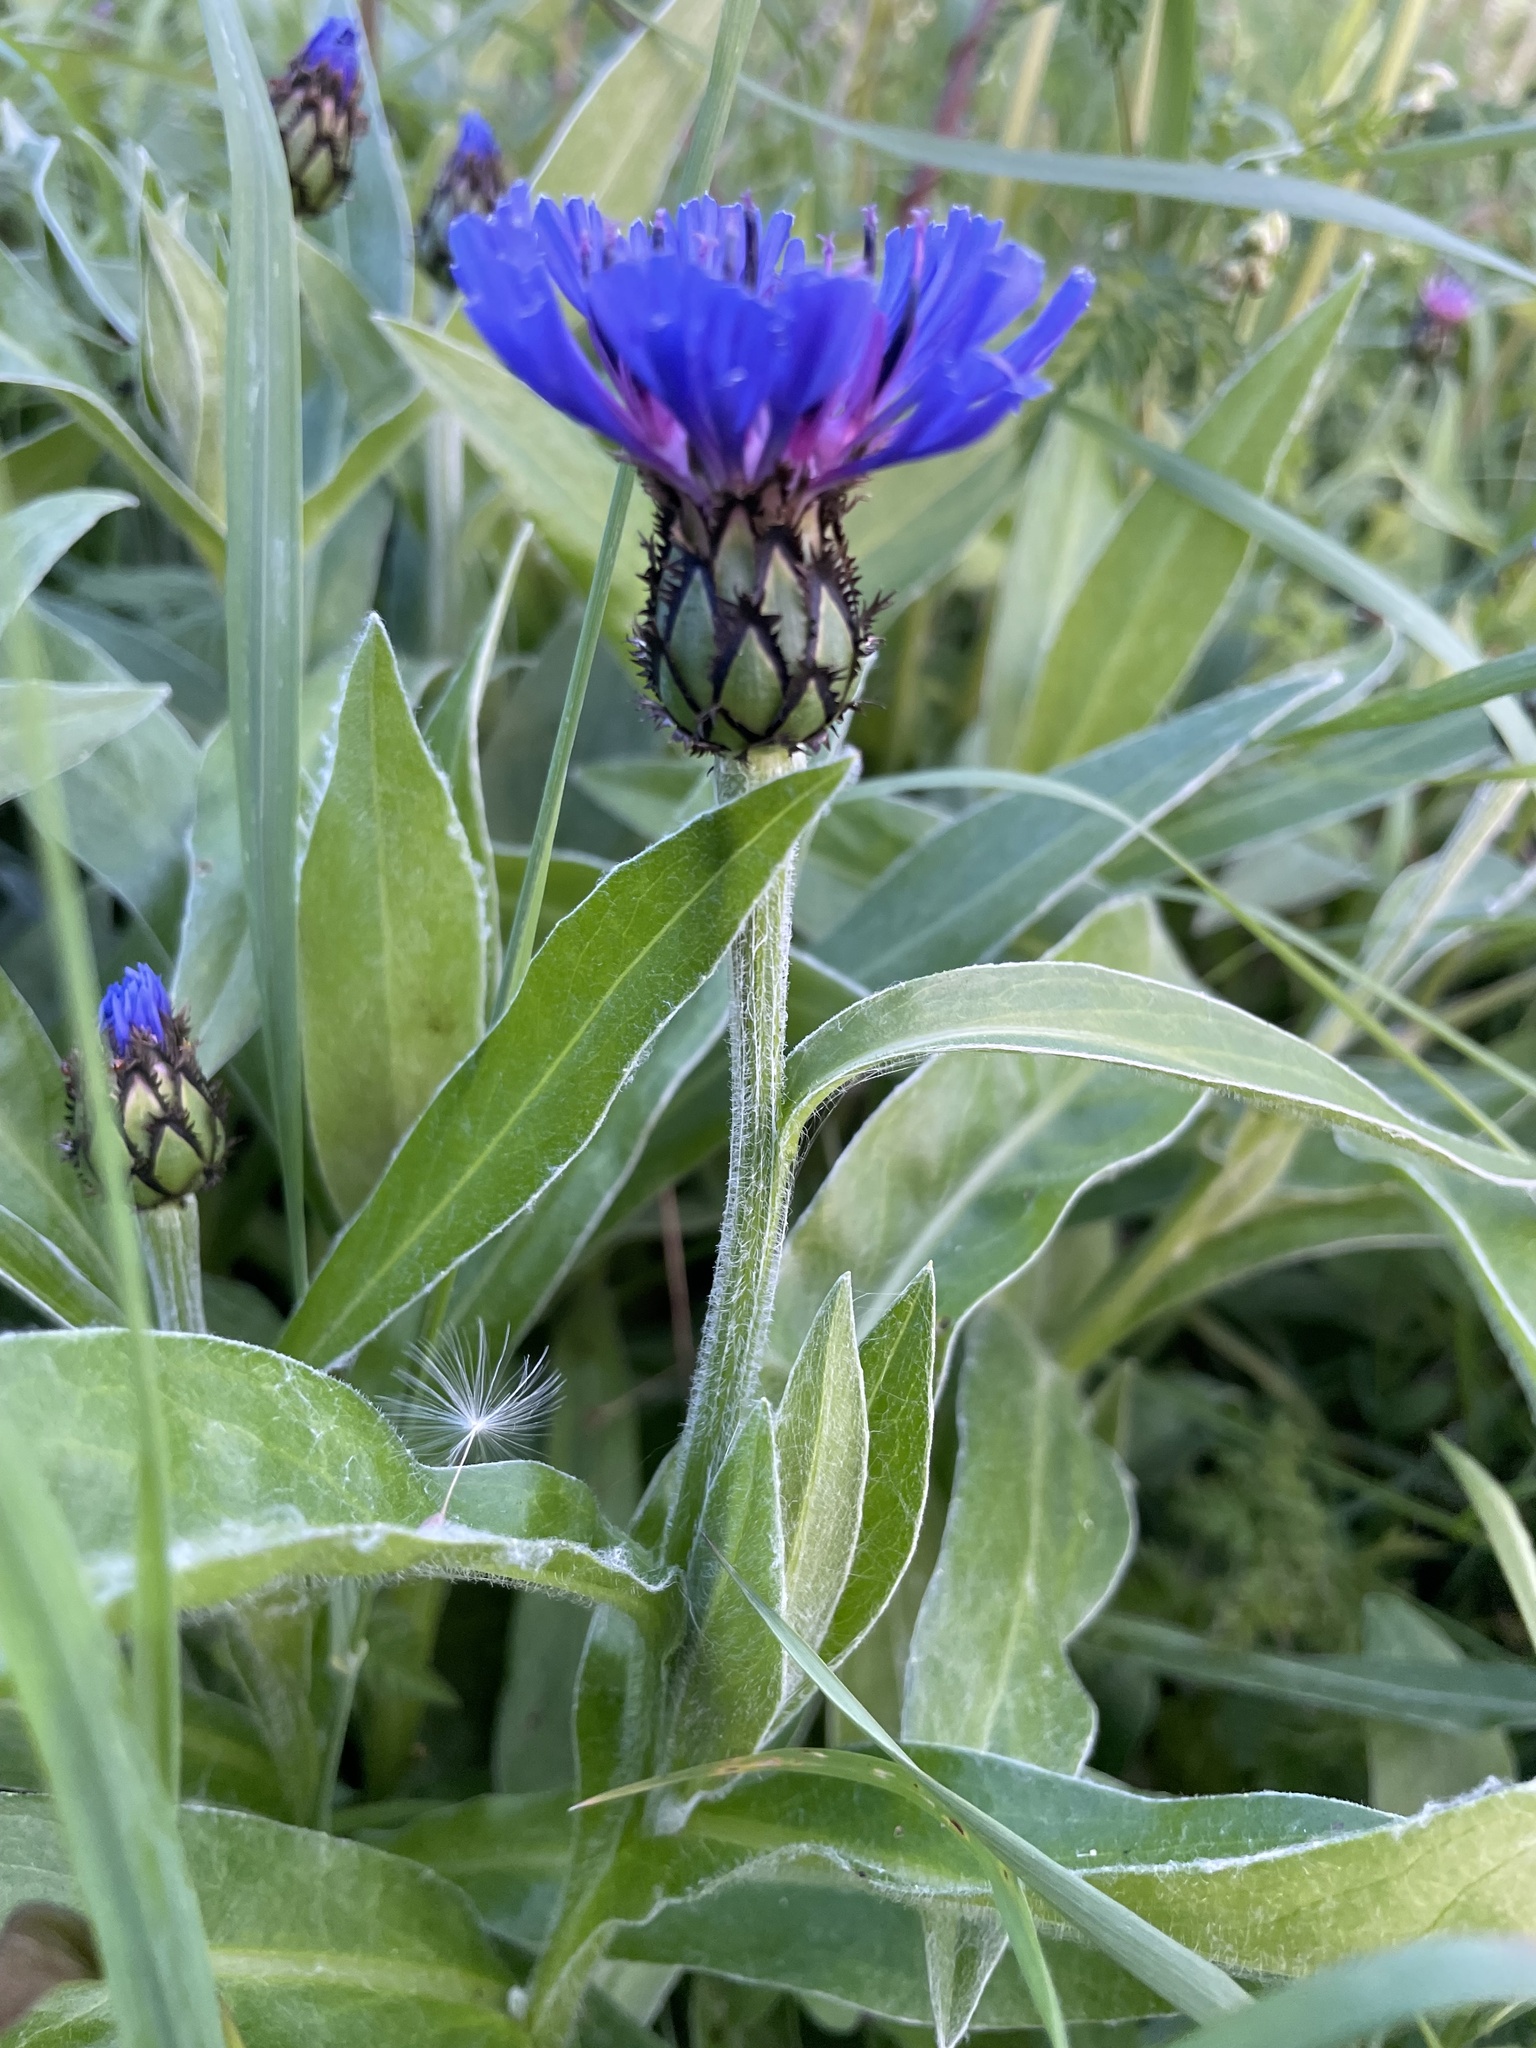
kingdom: Plantae
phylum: Tracheophyta
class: Magnoliopsida
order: Asterales
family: Asteraceae
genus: Centaurea
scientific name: Centaurea montana
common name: Perennial cornflower
